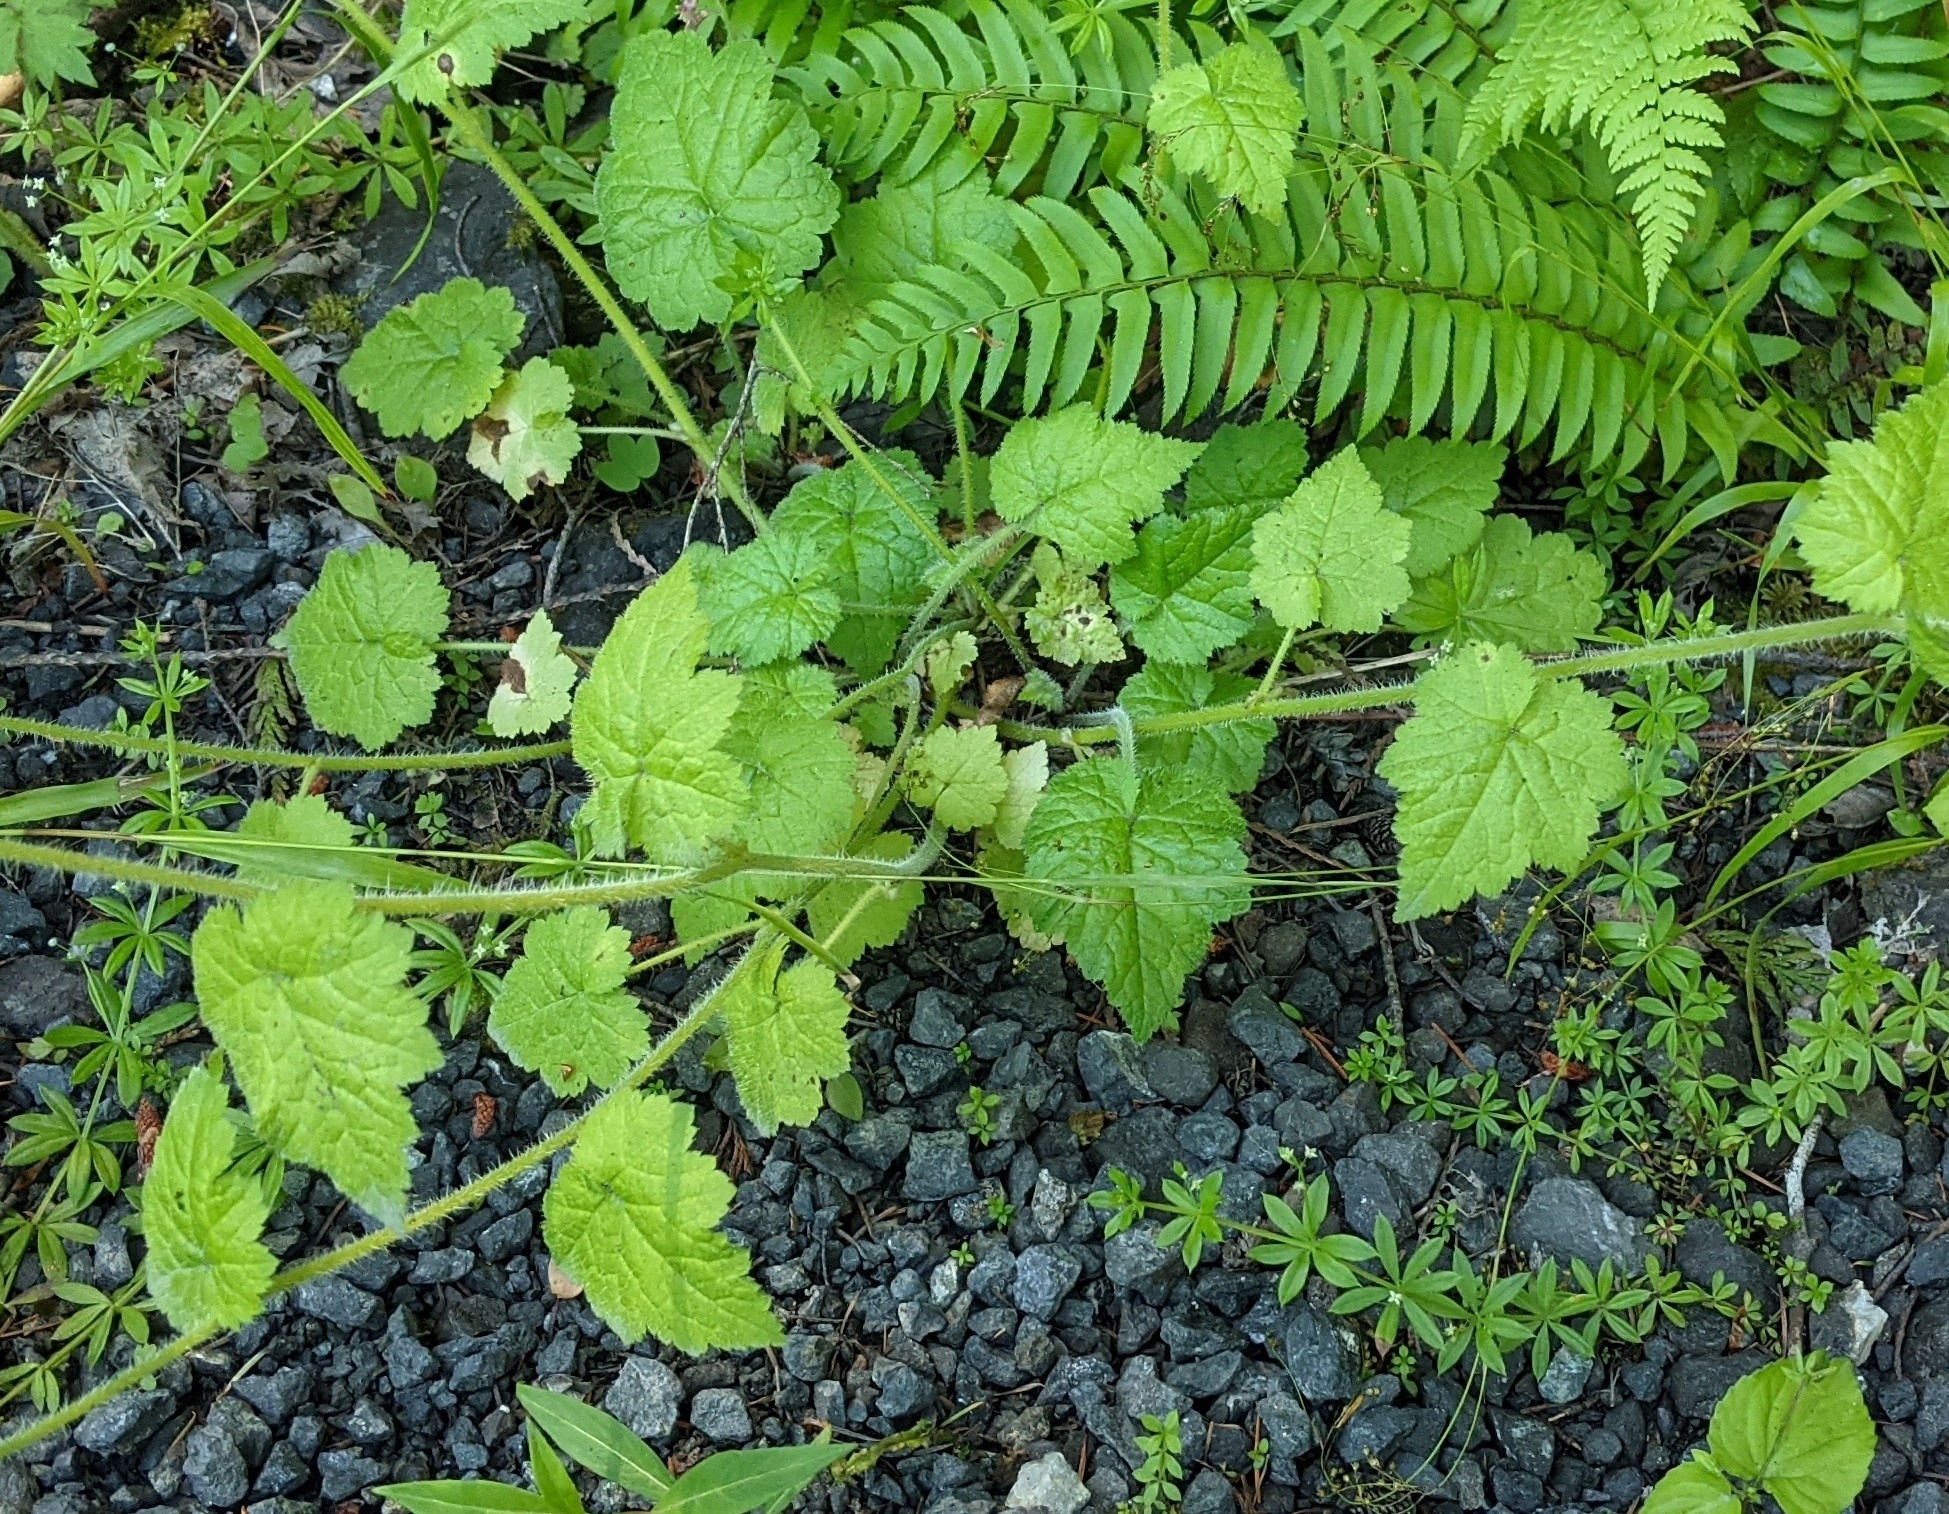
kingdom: Plantae
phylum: Tracheophyta
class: Magnoliopsida
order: Saxifragales
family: Saxifragaceae
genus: Tolmiea
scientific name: Tolmiea menziesii
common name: Pick-a-back-plant
